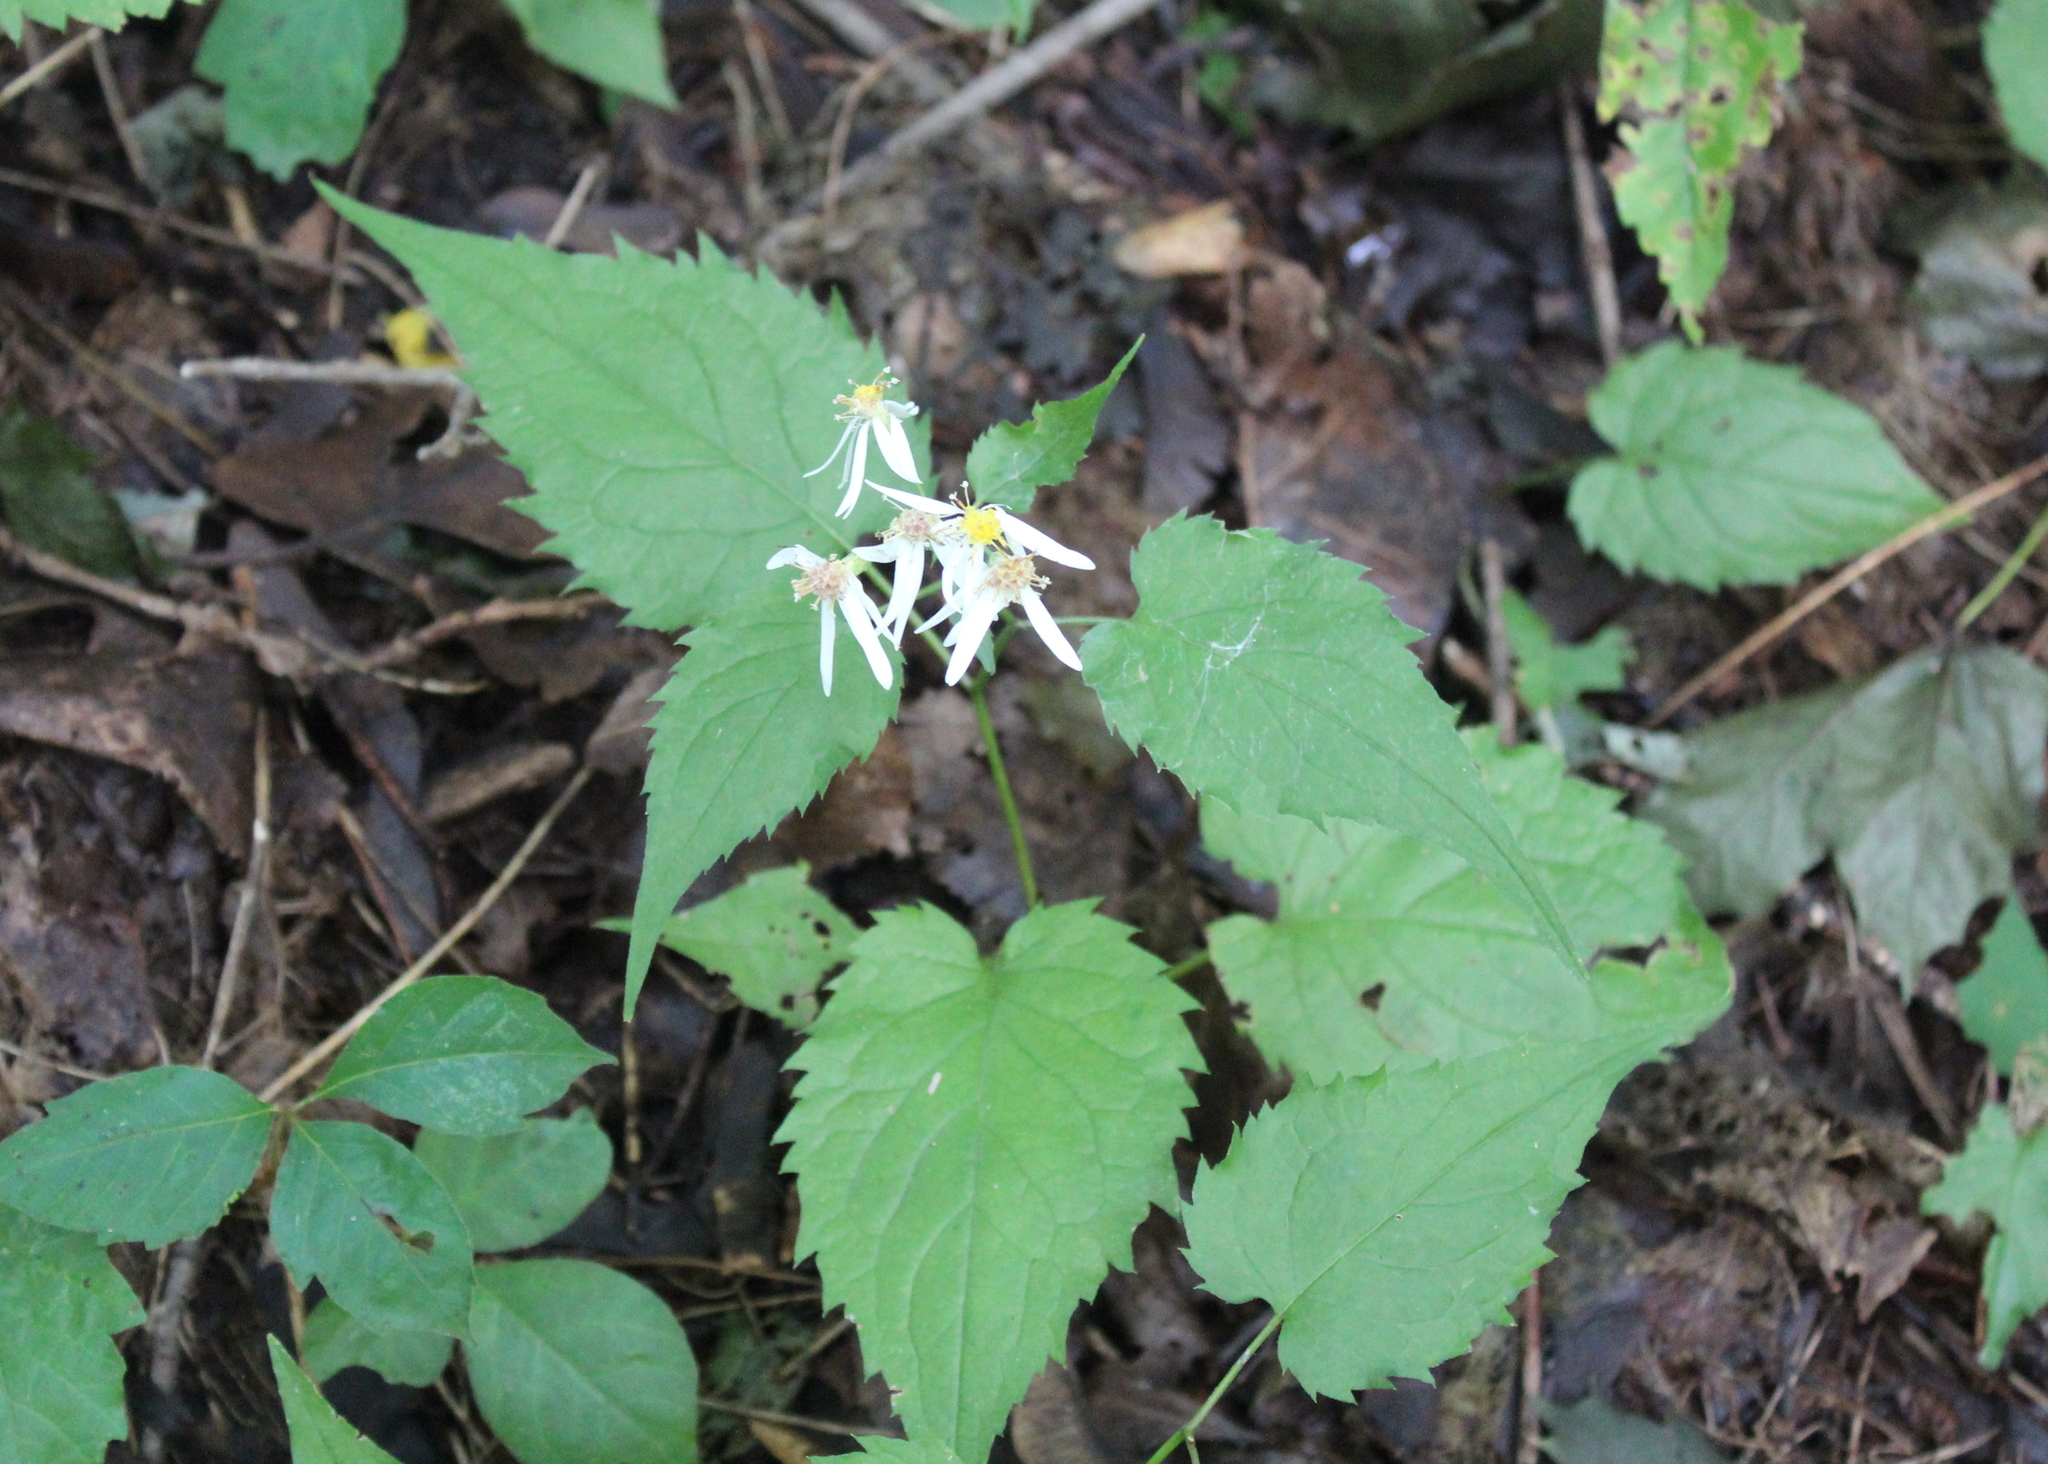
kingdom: Plantae
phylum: Tracheophyta
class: Magnoliopsida
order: Asterales
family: Asteraceae
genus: Eurybia
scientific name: Eurybia divaricata
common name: White wood aster
